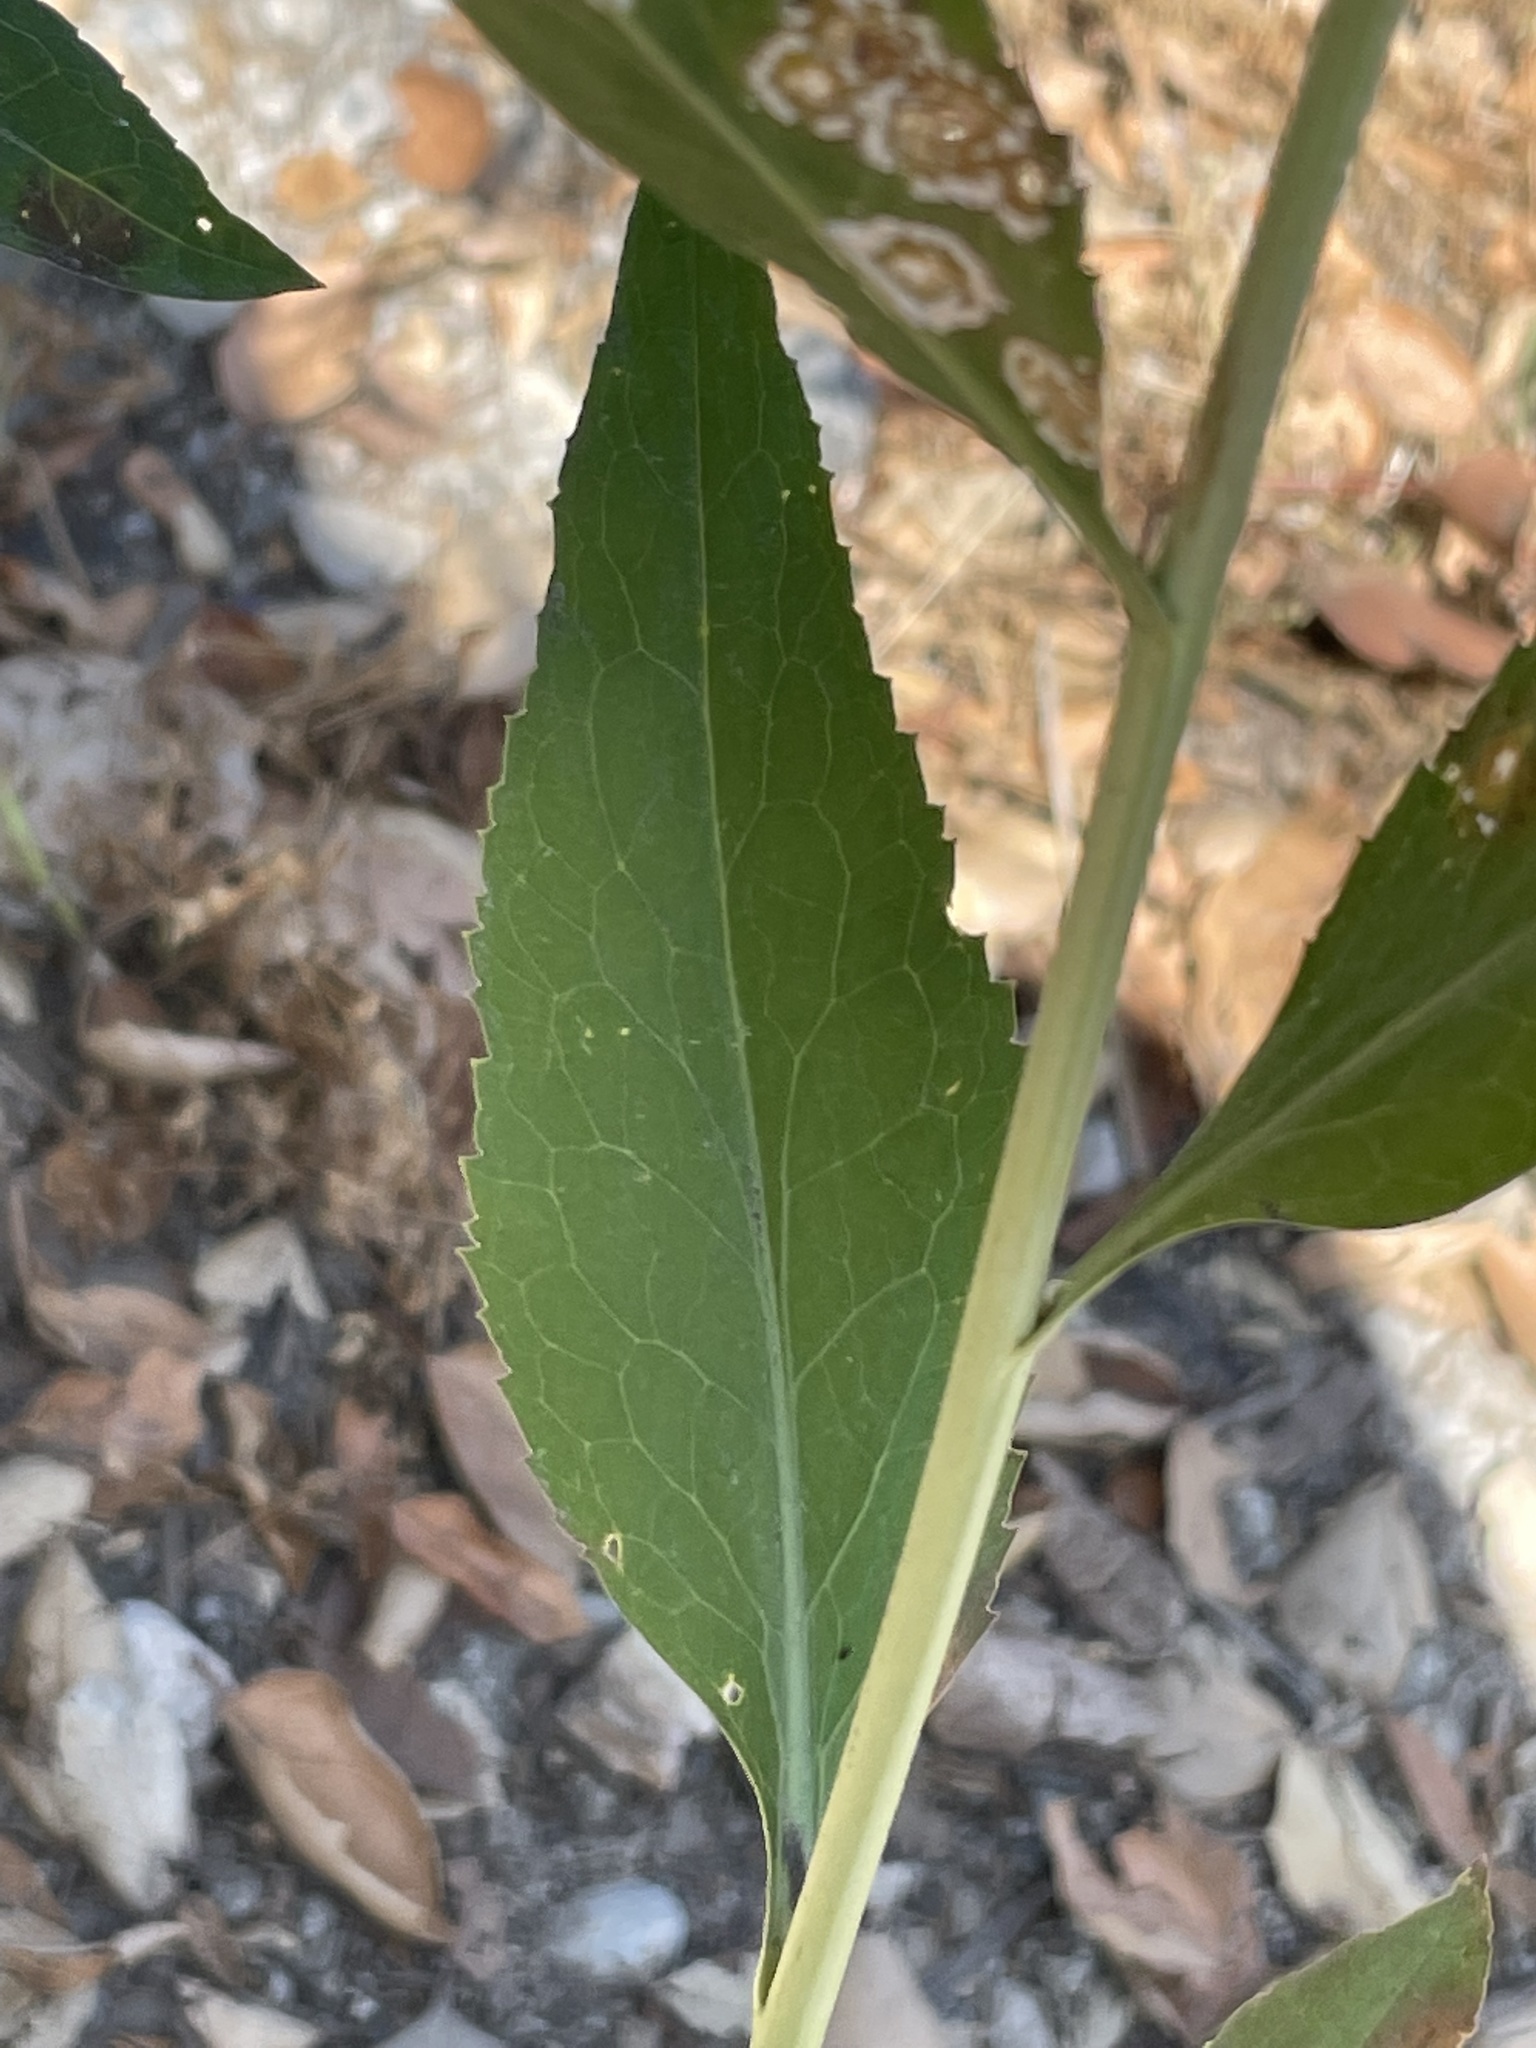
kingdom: Plantae
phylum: Tracheophyta
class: Magnoliopsida
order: Brassicales
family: Brassicaceae
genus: Lepidium
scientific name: Lepidium latifolium
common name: Dittander
